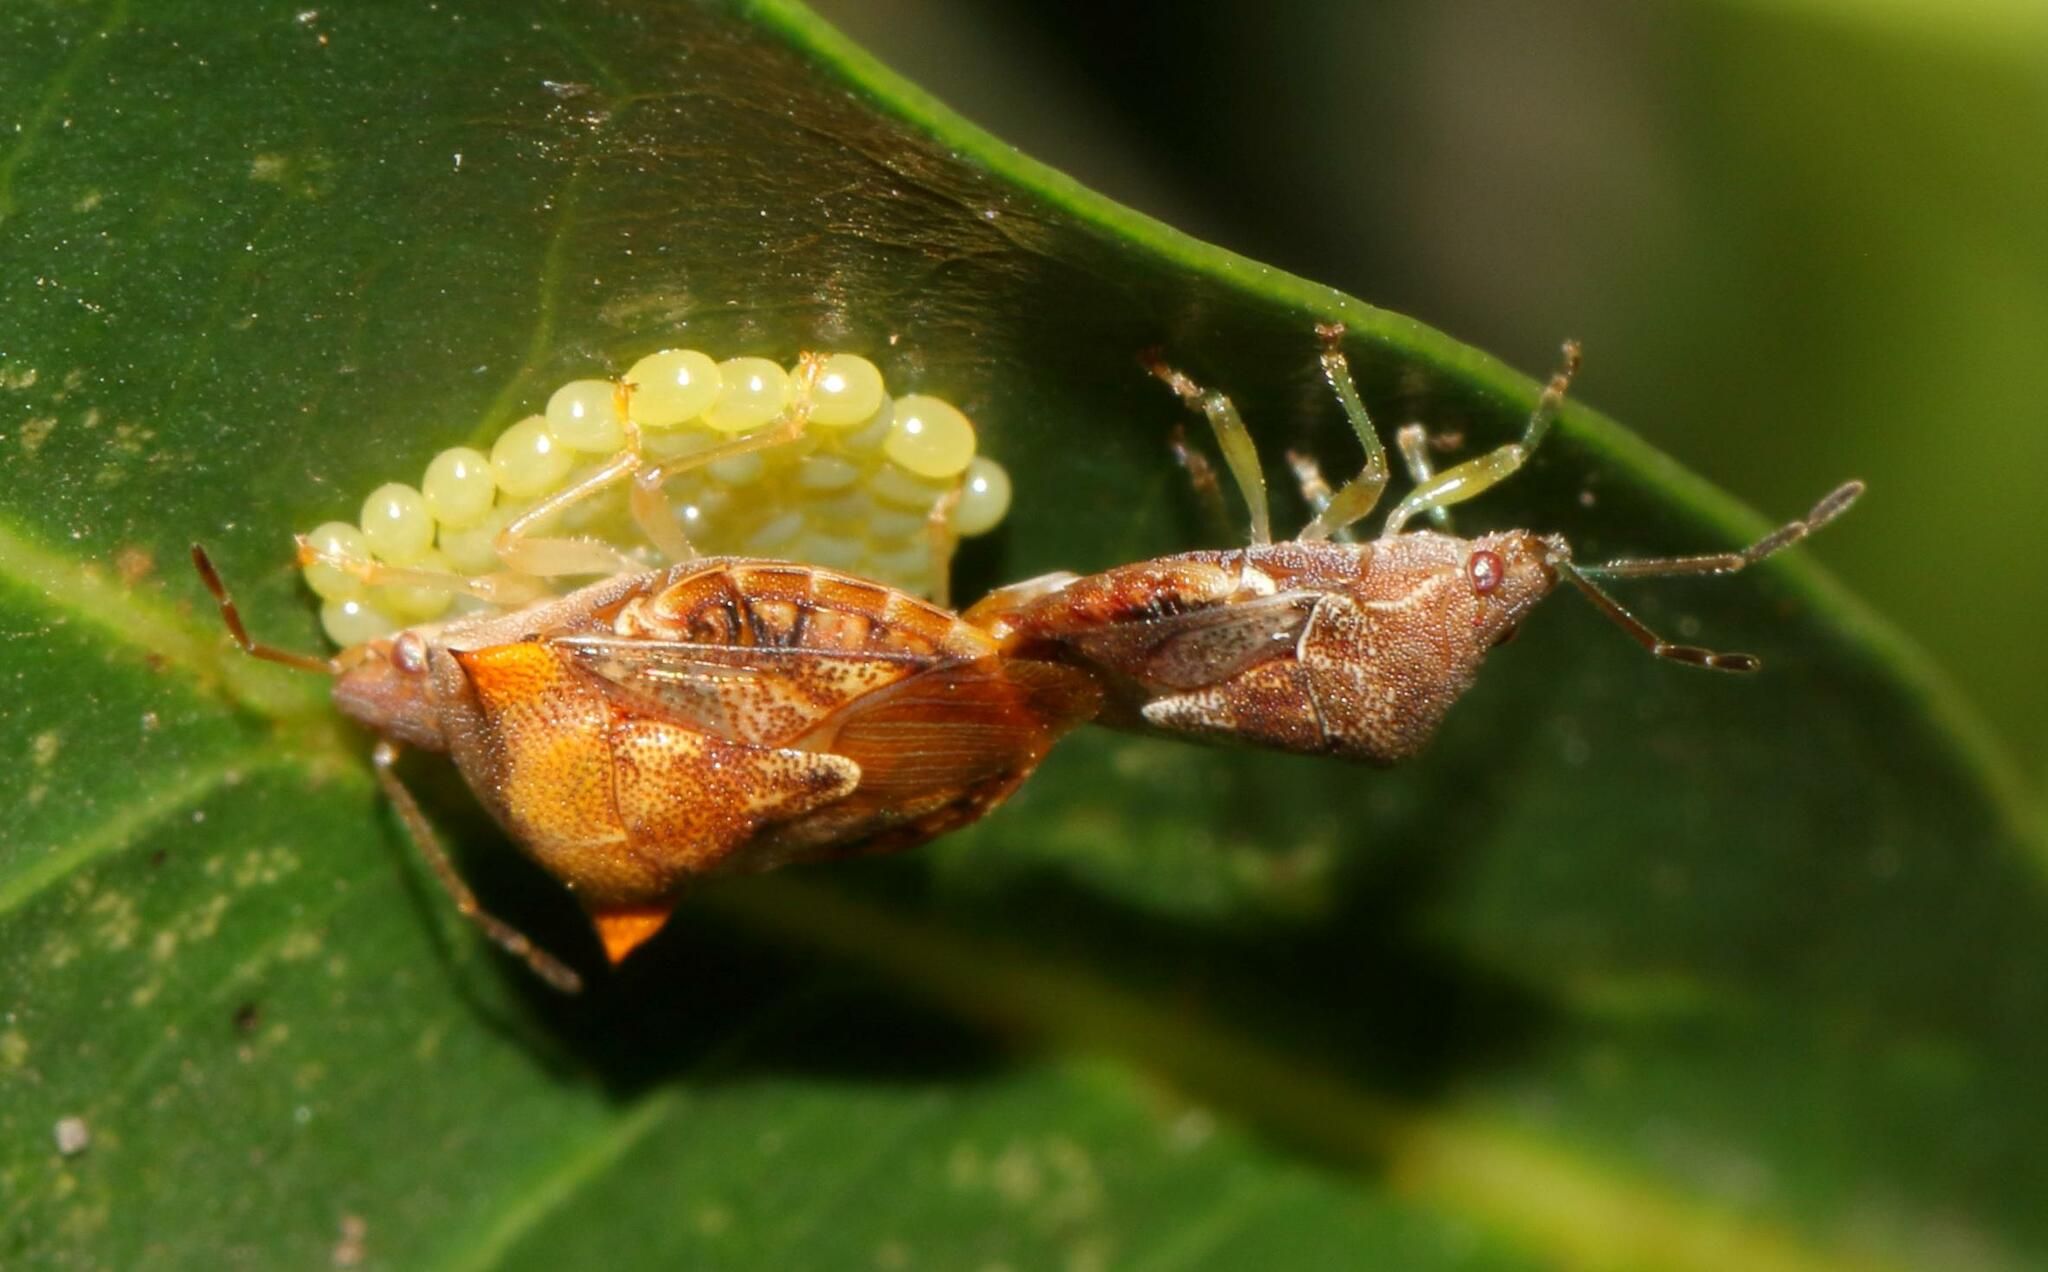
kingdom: Animalia
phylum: Arthropoda
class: Insecta
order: Hemiptera
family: Acanthosomatidae
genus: Uhlunga
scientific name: Uhlunga typica
